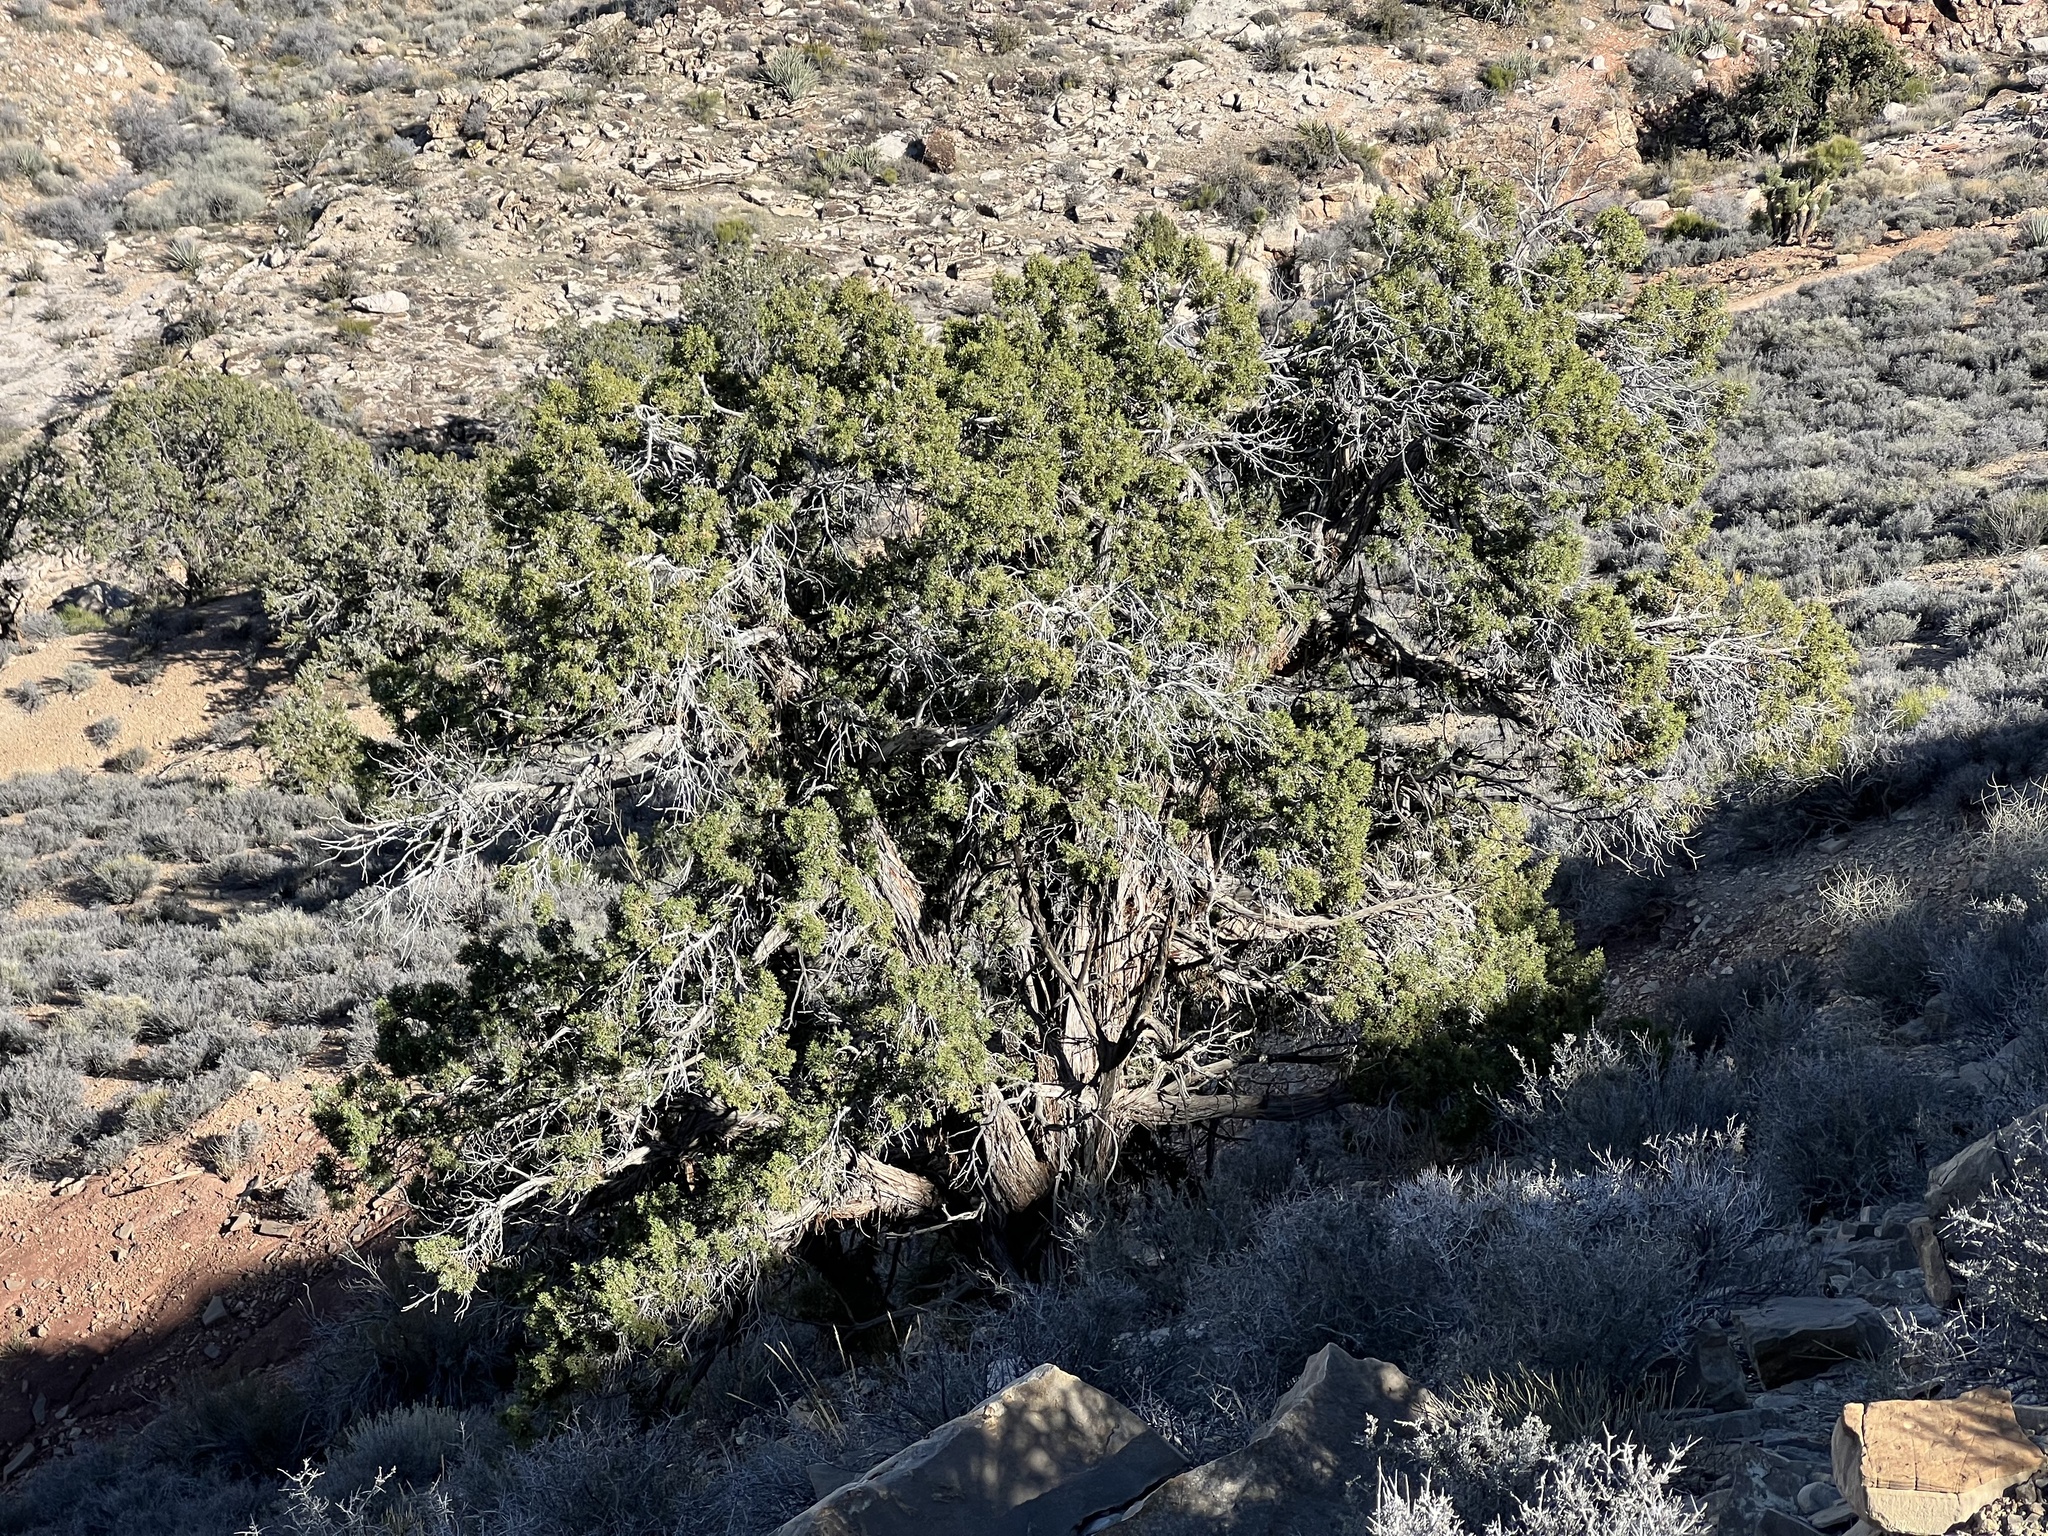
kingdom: Plantae
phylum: Tracheophyta
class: Pinopsida
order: Pinales
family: Cupressaceae
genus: Juniperus
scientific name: Juniperus osteosperma
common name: Utah juniper
